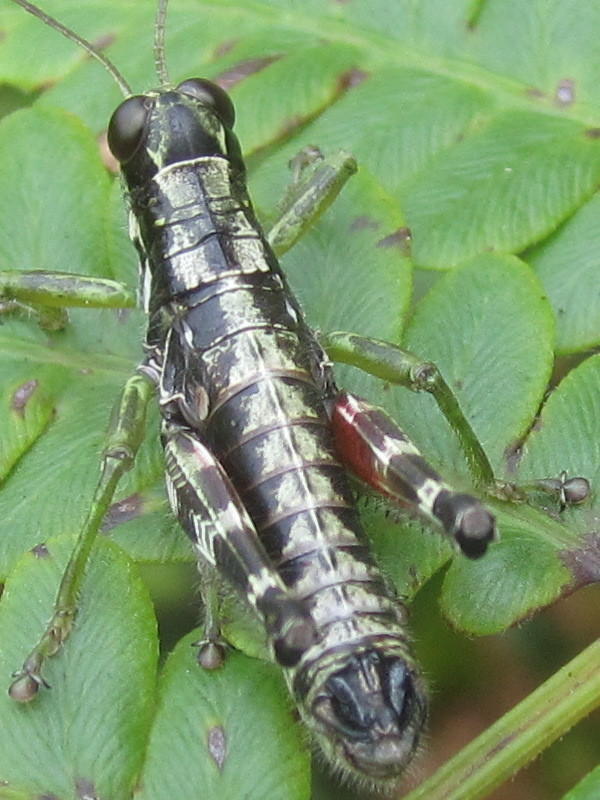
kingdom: Animalia
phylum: Arthropoda
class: Insecta
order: Orthoptera
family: Acrididae
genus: Booneacris
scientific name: Booneacris glacialis
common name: Wingless mountain grasshopper
